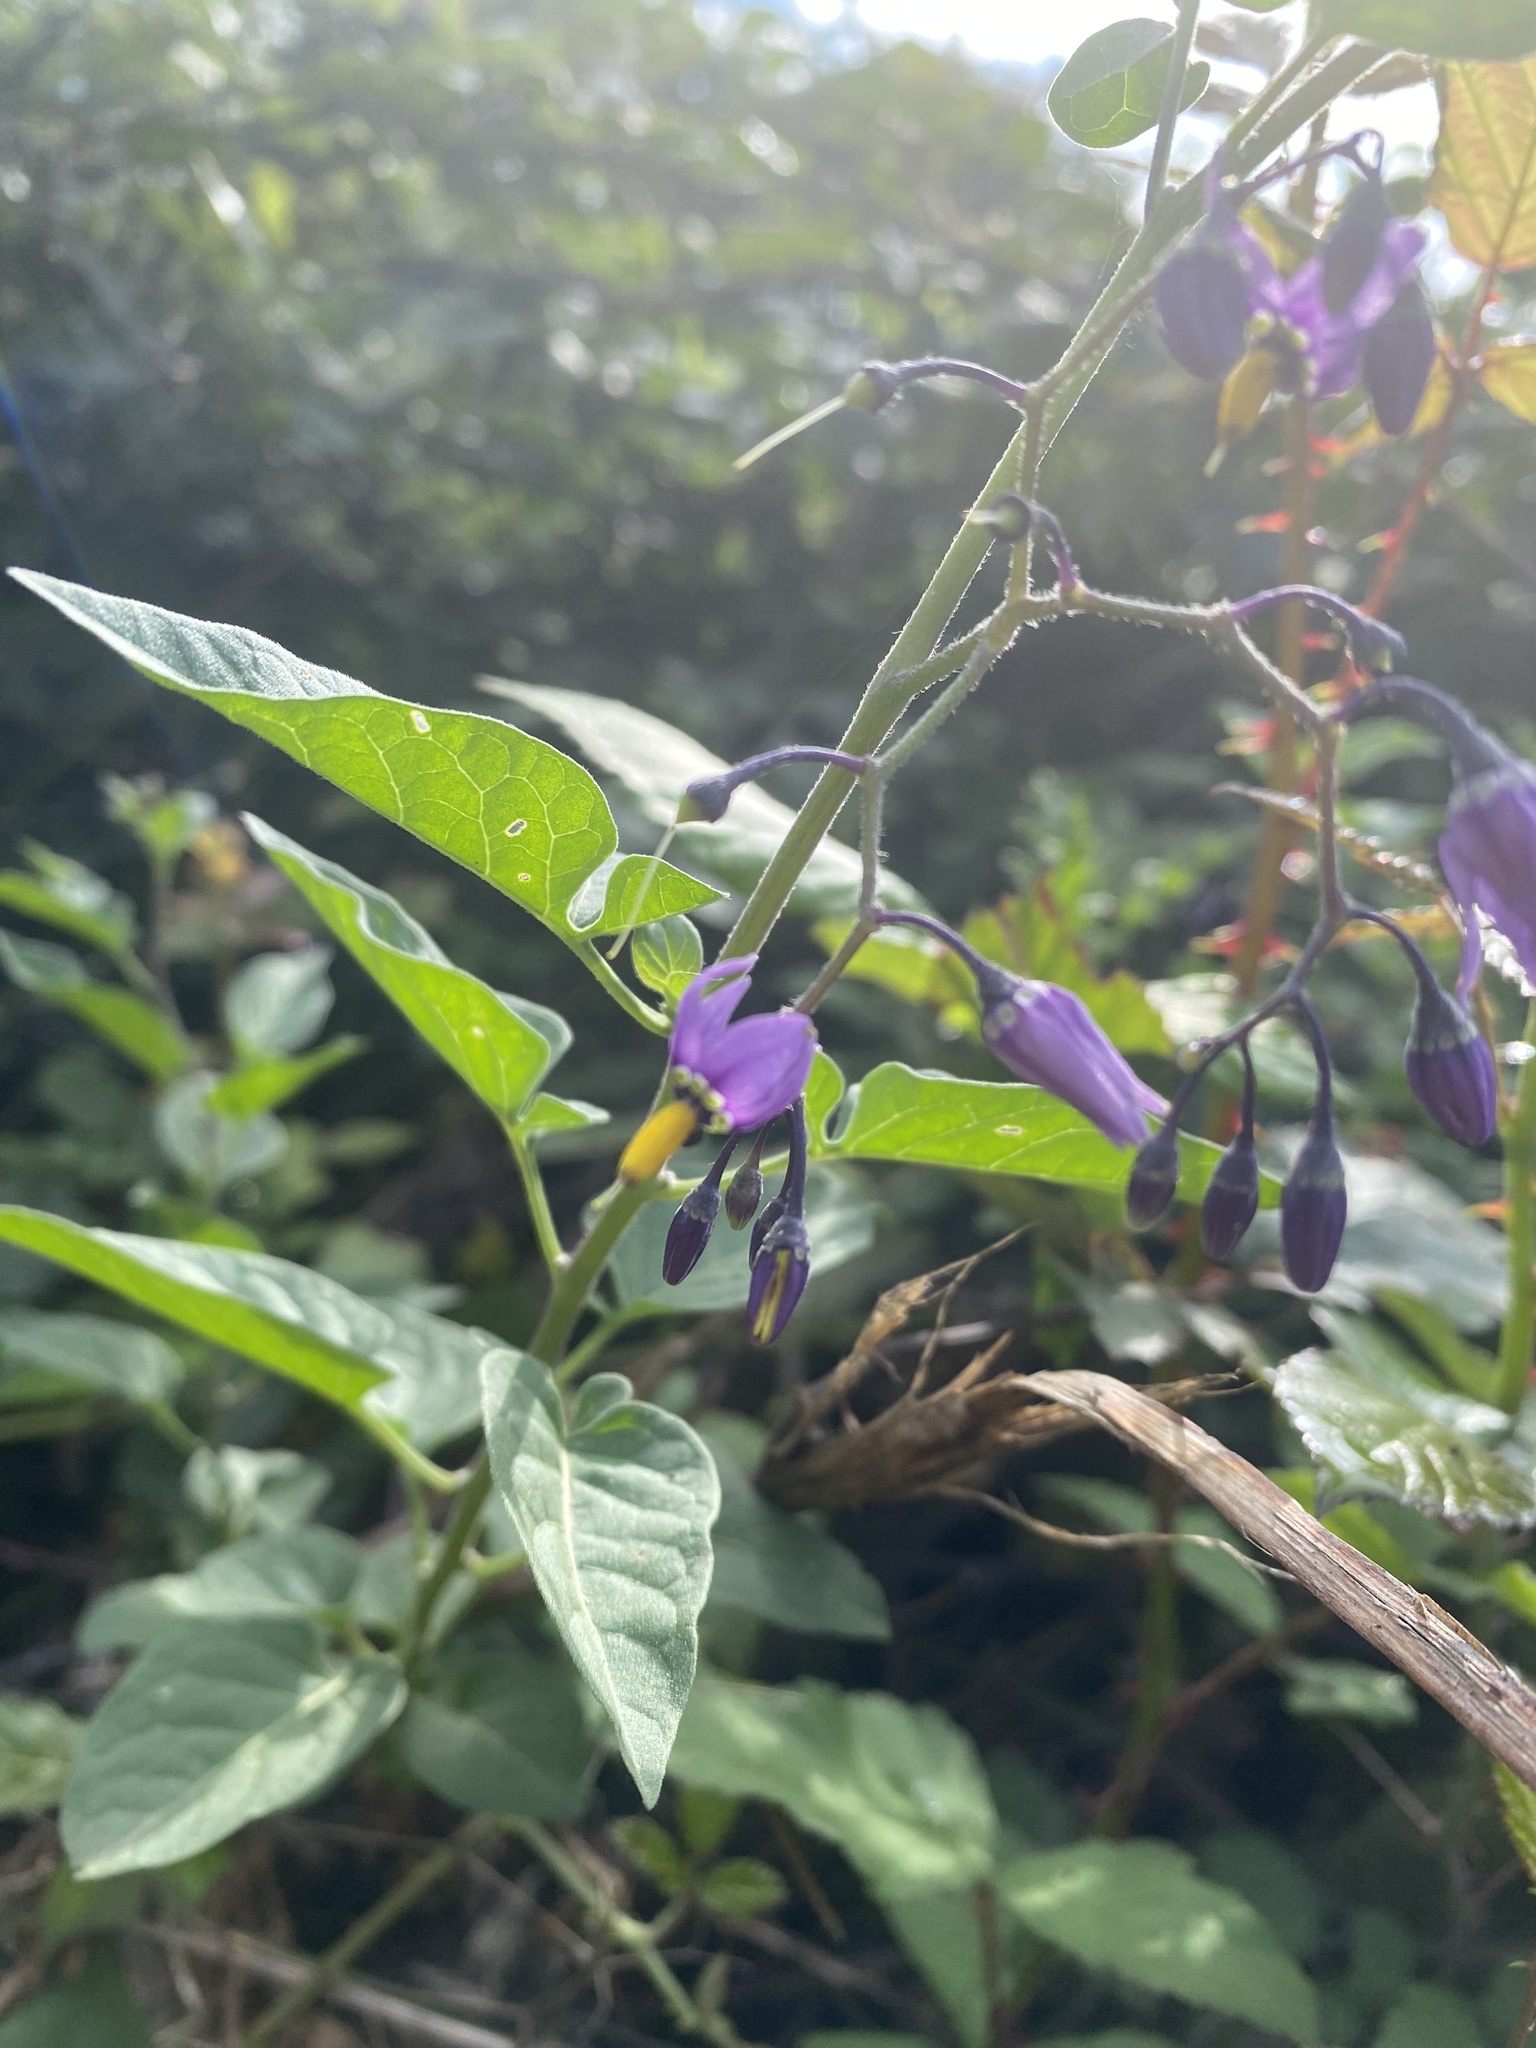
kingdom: Plantae
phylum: Tracheophyta
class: Magnoliopsida
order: Solanales
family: Solanaceae
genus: Solanum
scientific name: Solanum dulcamara
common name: Climbing nightshade
